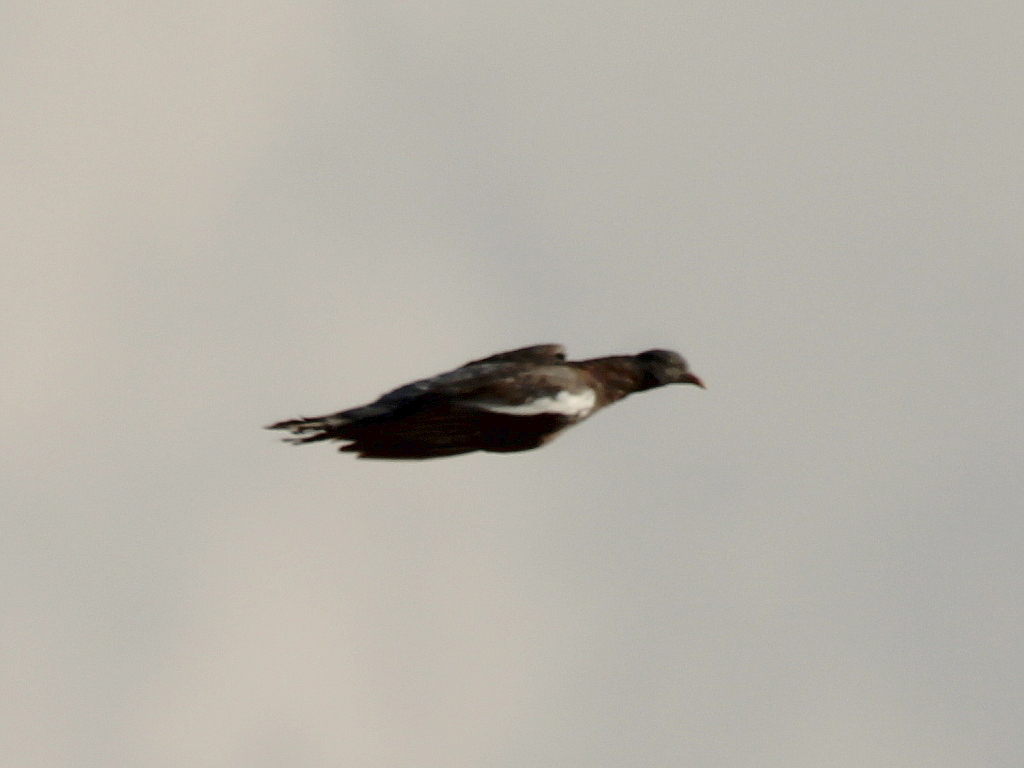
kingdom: Animalia
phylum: Chordata
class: Aves
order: Columbiformes
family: Columbidae
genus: Columba
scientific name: Columba palumbus
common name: Common wood pigeon
